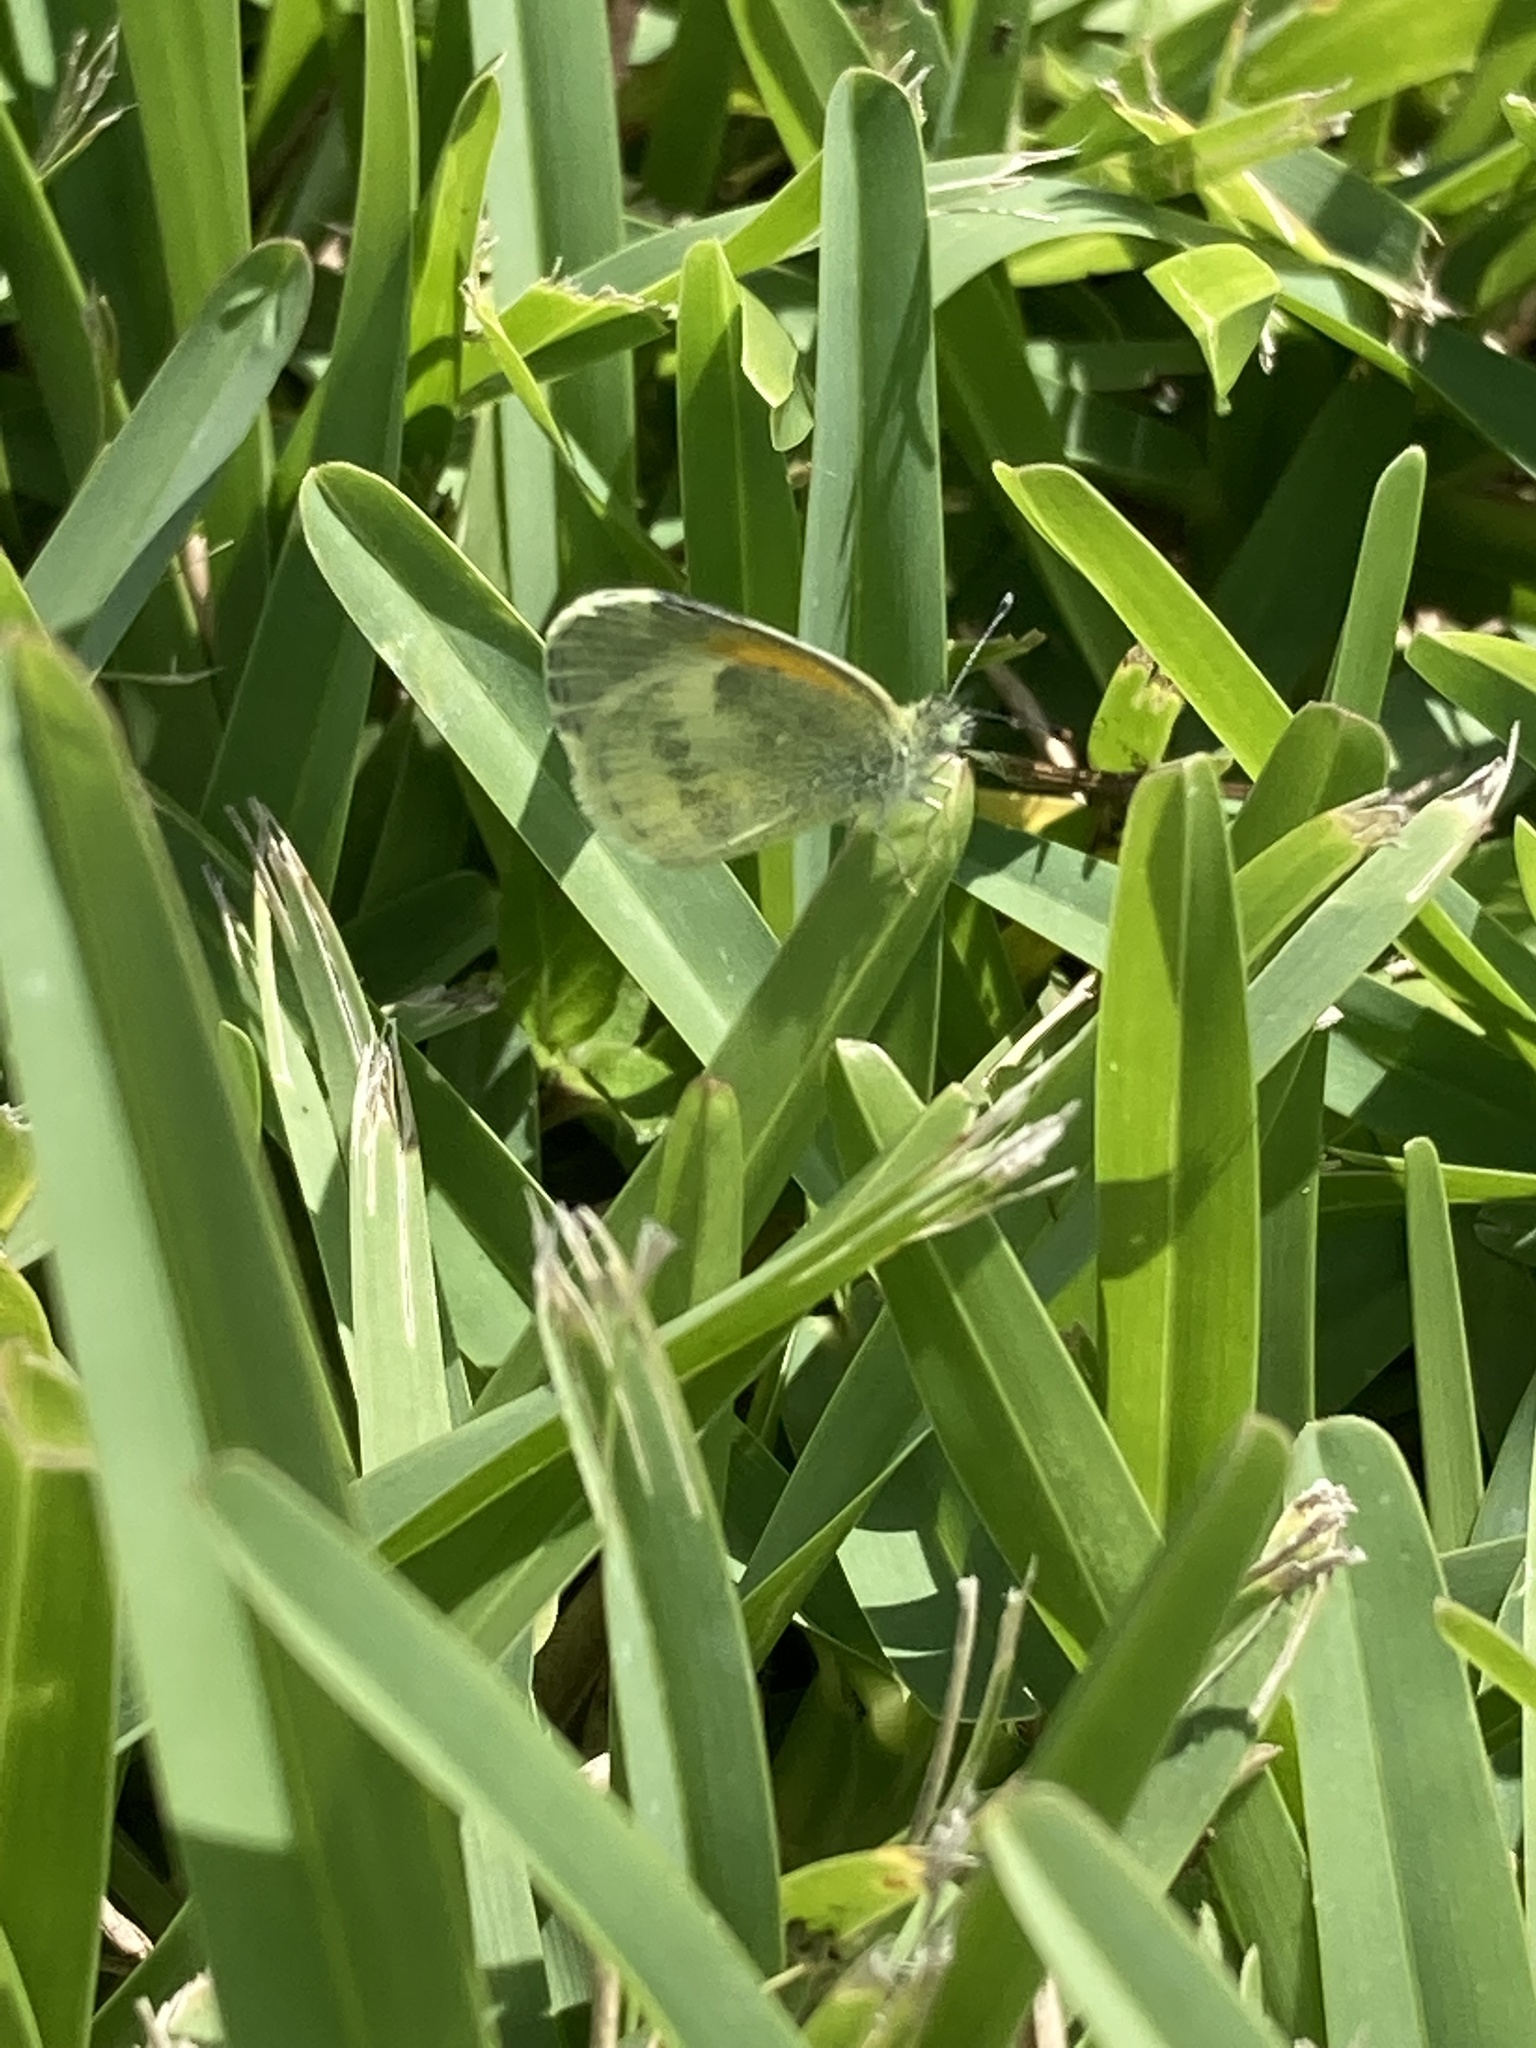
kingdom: Animalia
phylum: Arthropoda
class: Insecta
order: Lepidoptera
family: Pieridae
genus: Nathalis
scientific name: Nathalis iole
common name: Dainty sulphur
